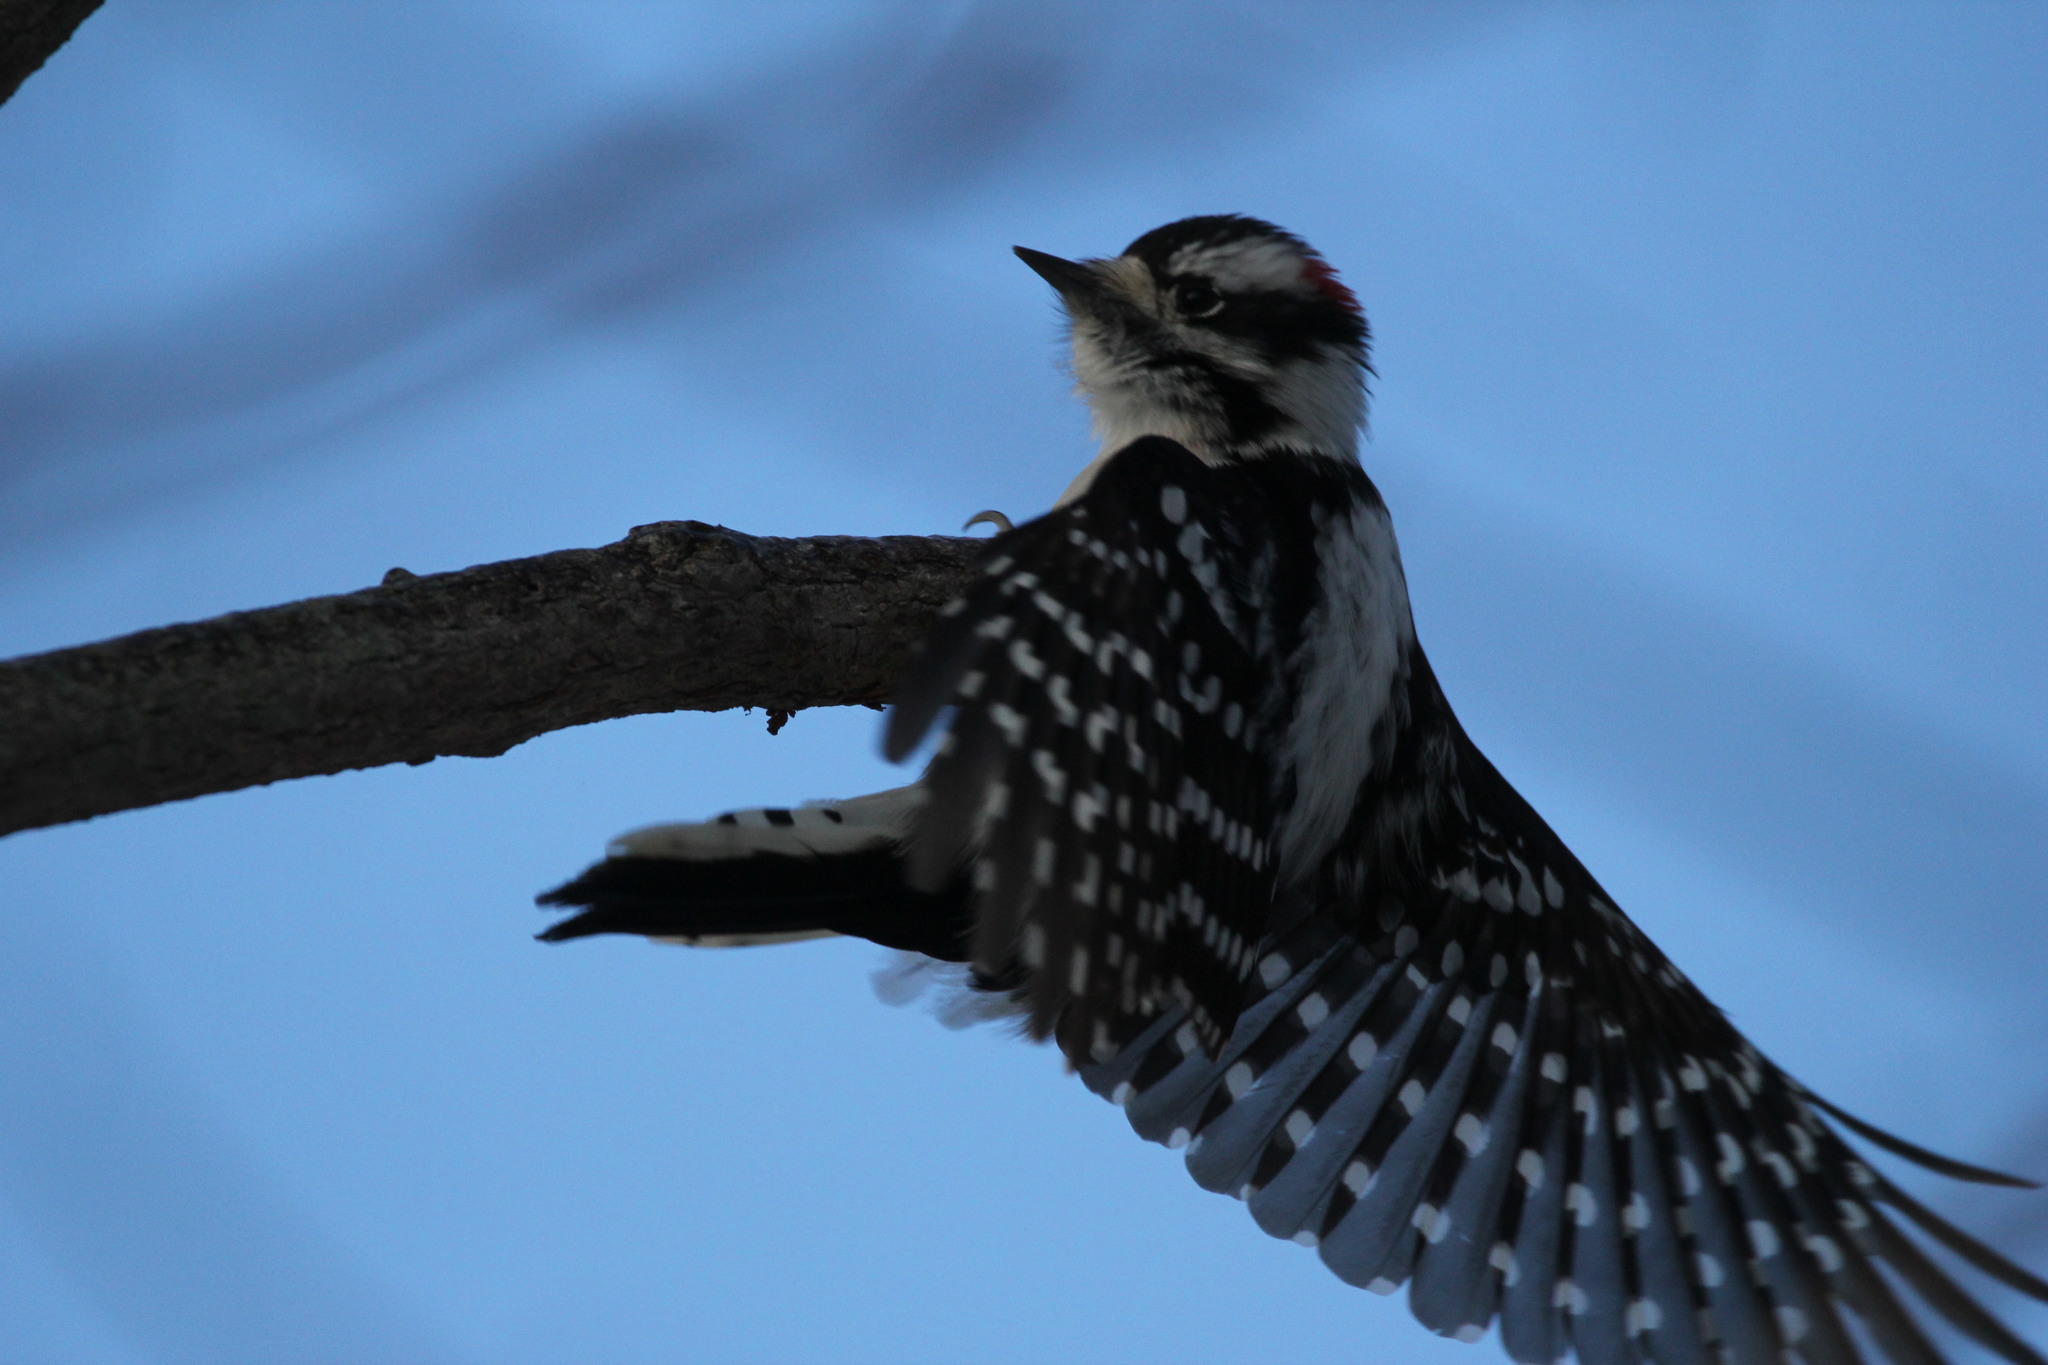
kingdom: Animalia
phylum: Chordata
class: Aves
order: Piciformes
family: Picidae
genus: Dryobates
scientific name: Dryobates pubescens
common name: Downy woodpecker
